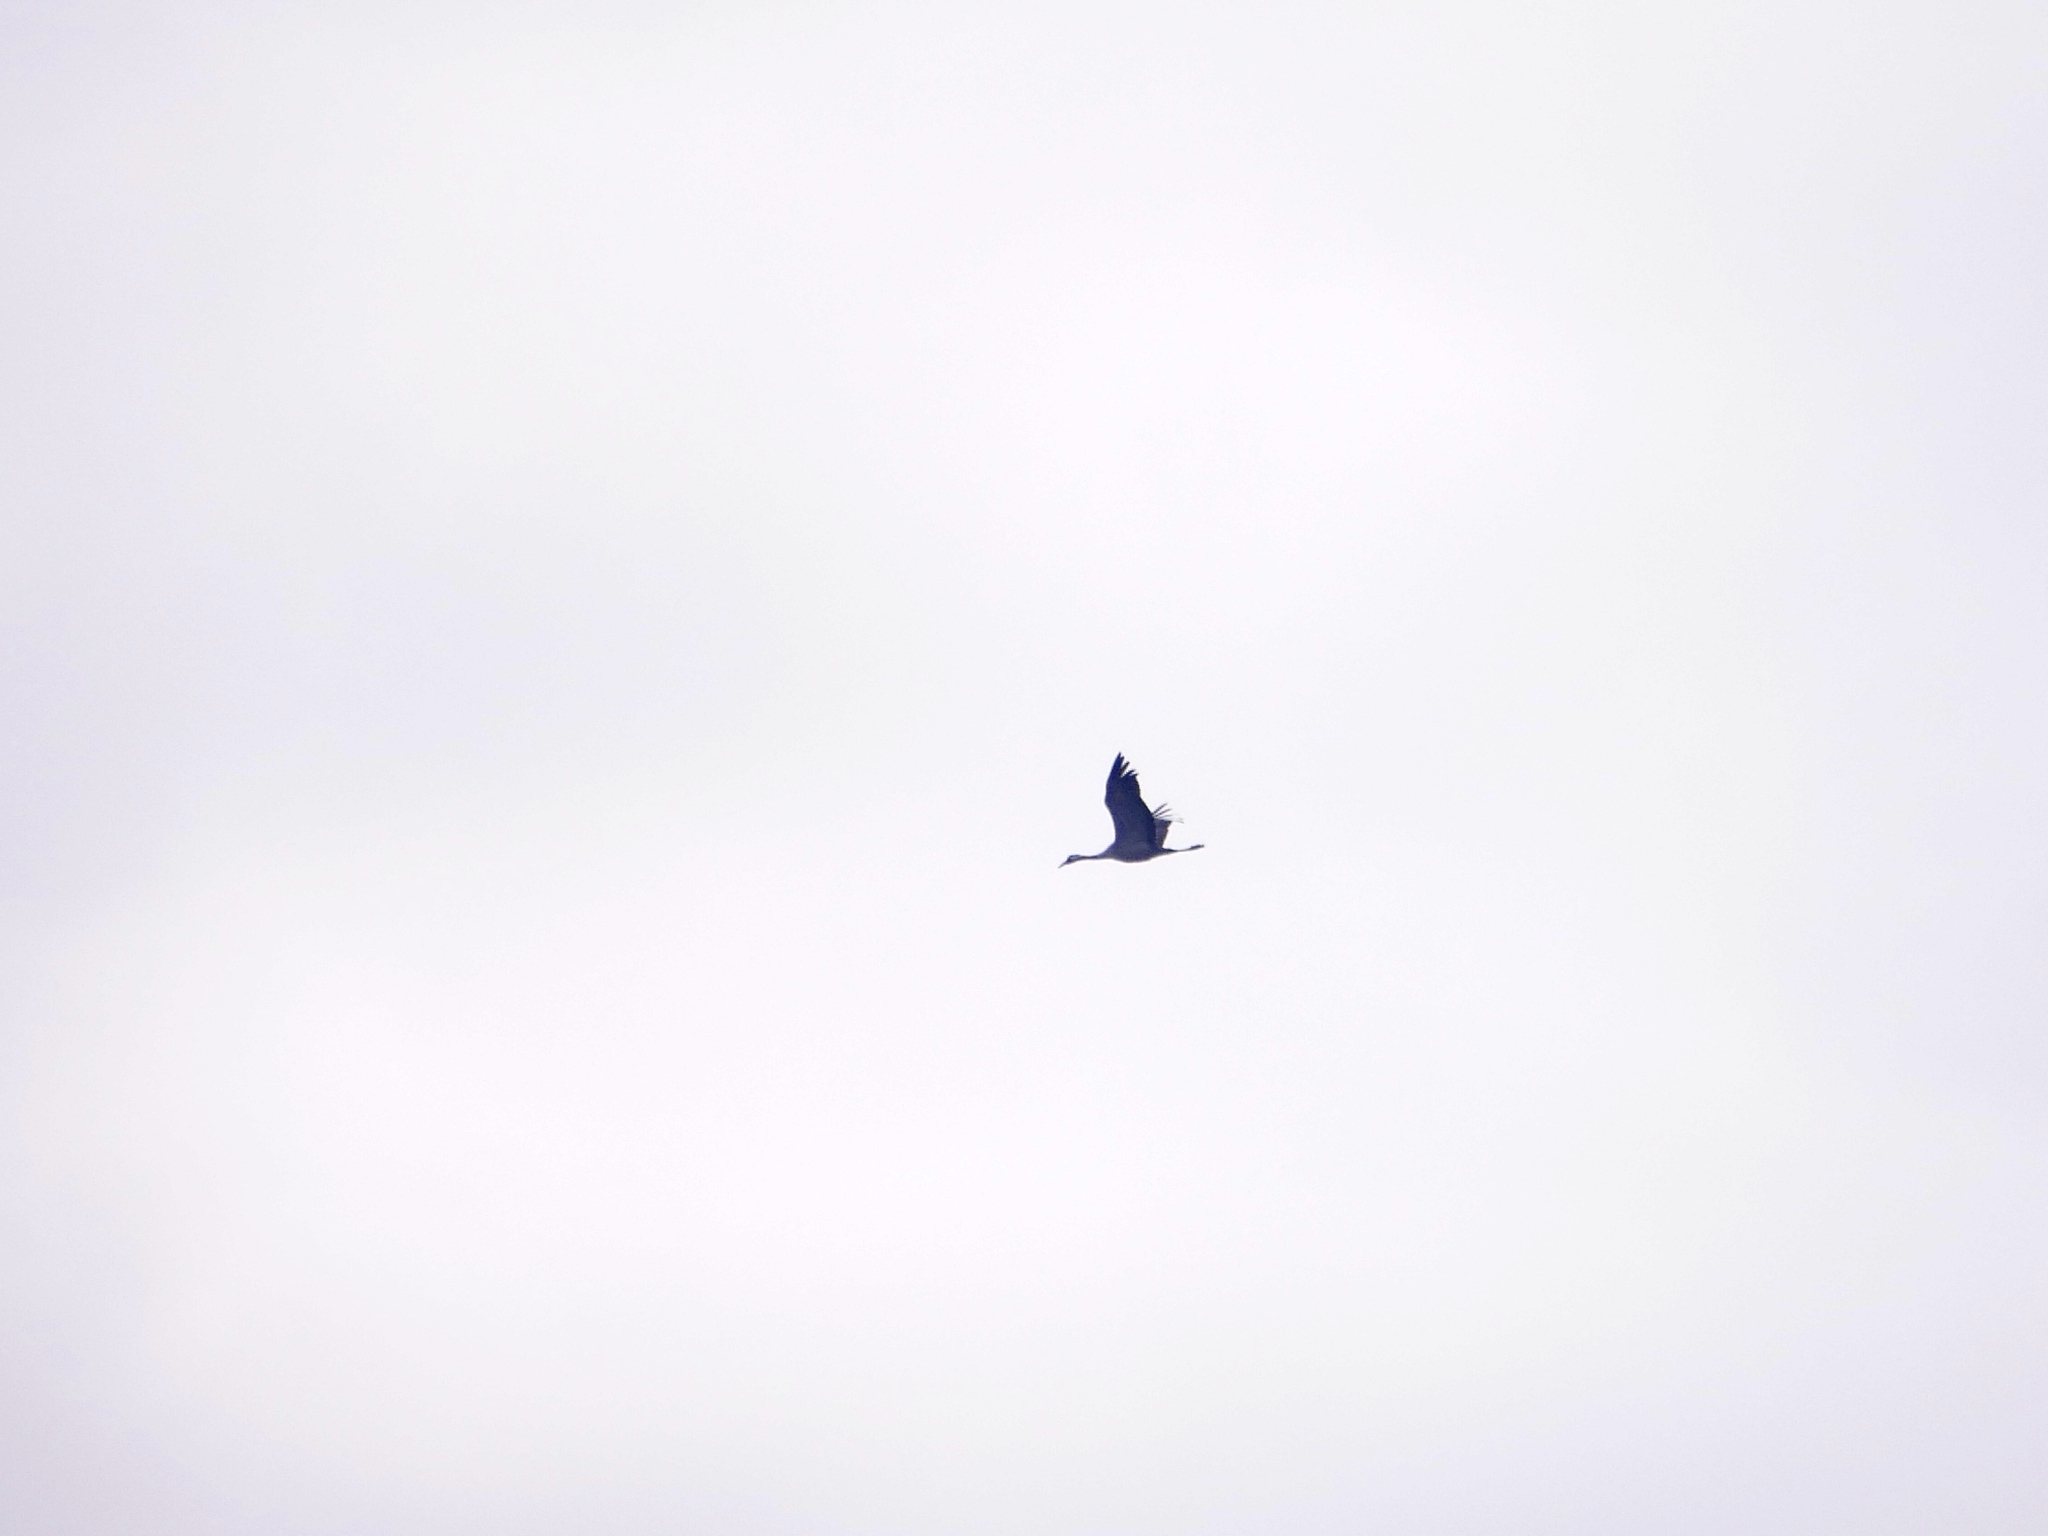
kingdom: Animalia
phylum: Chordata
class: Aves
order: Gruiformes
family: Gruidae
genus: Grus
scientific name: Grus grus
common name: Common crane
